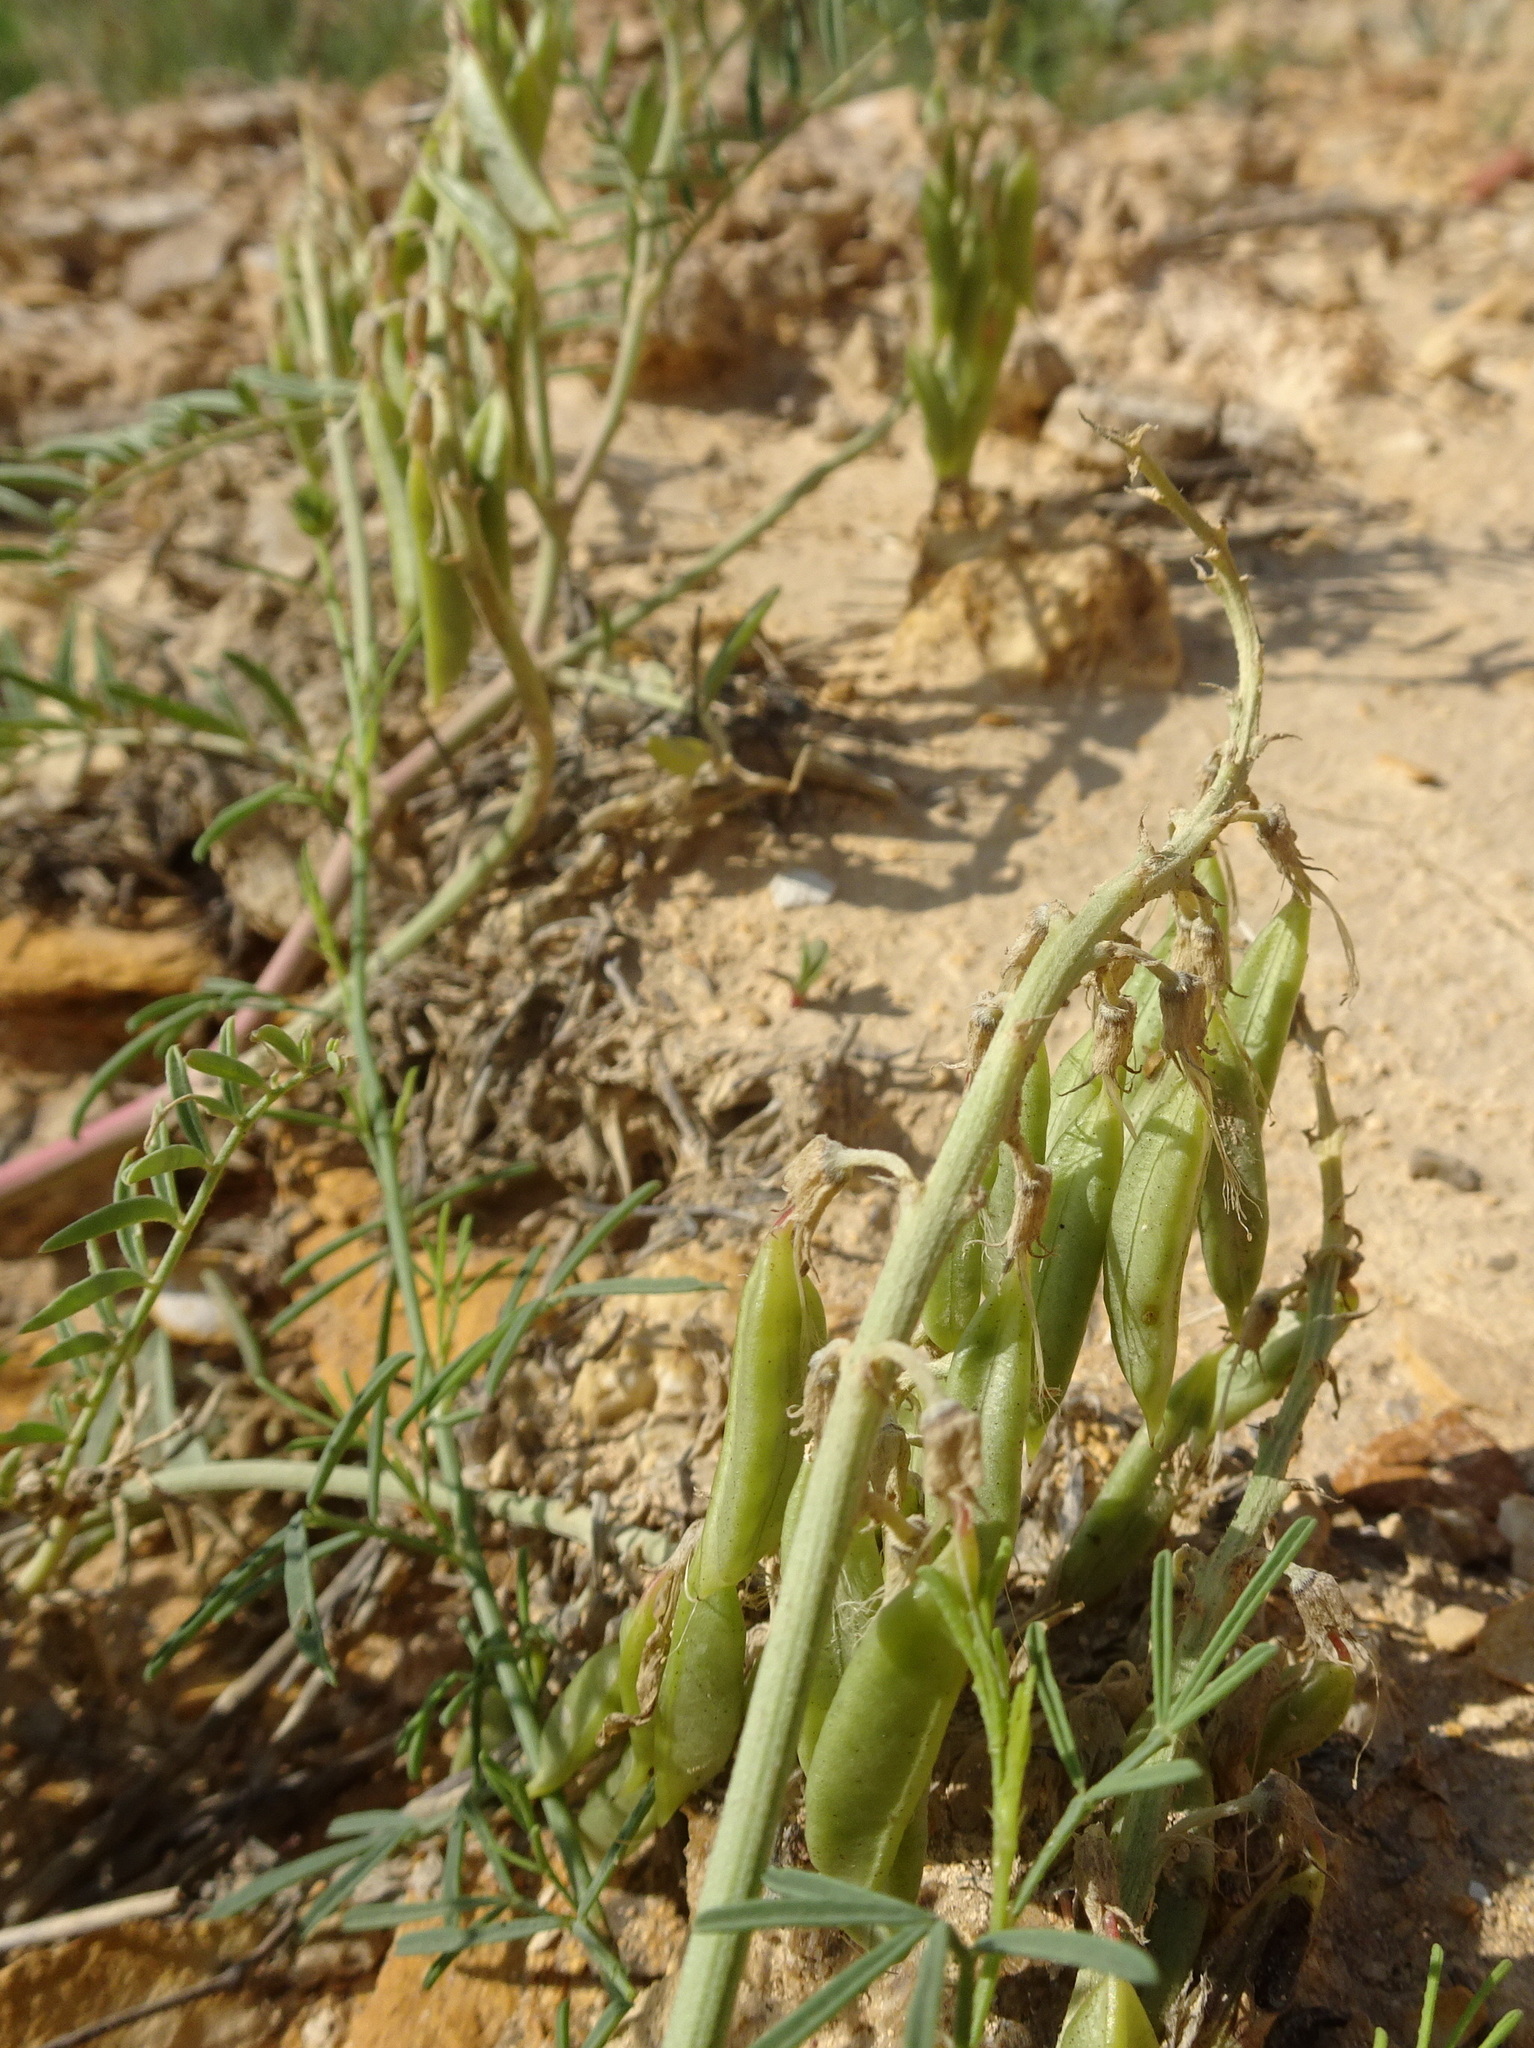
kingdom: Plantae
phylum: Tracheophyta
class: Magnoliopsida
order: Fabales
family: Fabaceae
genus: Astragalus
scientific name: Astragalus racemosus
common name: Alkali milk-vetch
